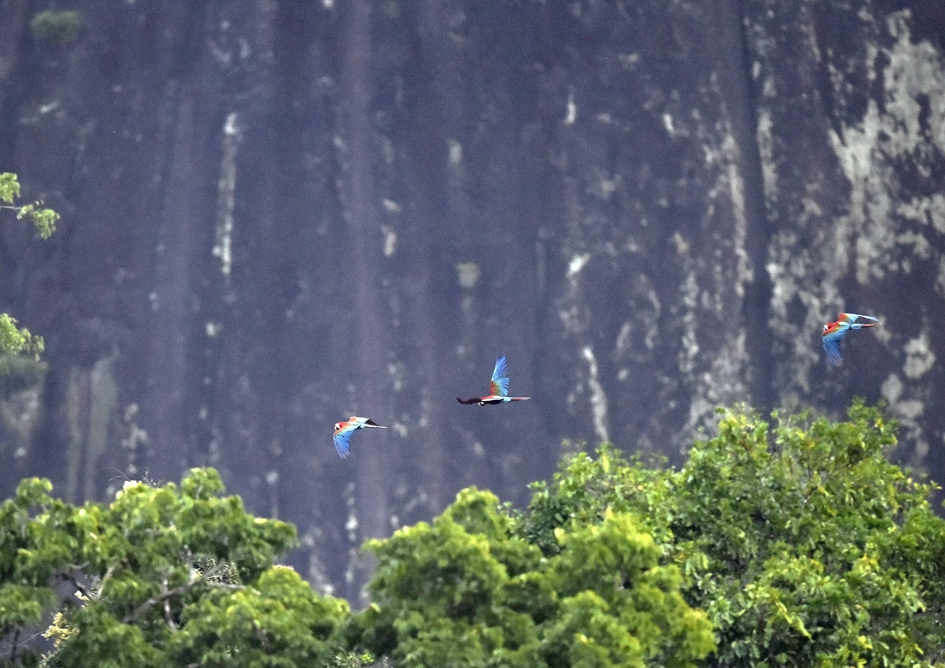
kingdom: Animalia
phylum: Chordata
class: Aves
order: Psittaciformes
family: Psittacidae
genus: Ara
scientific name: Ara chloropterus
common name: Red-and-green macaw
